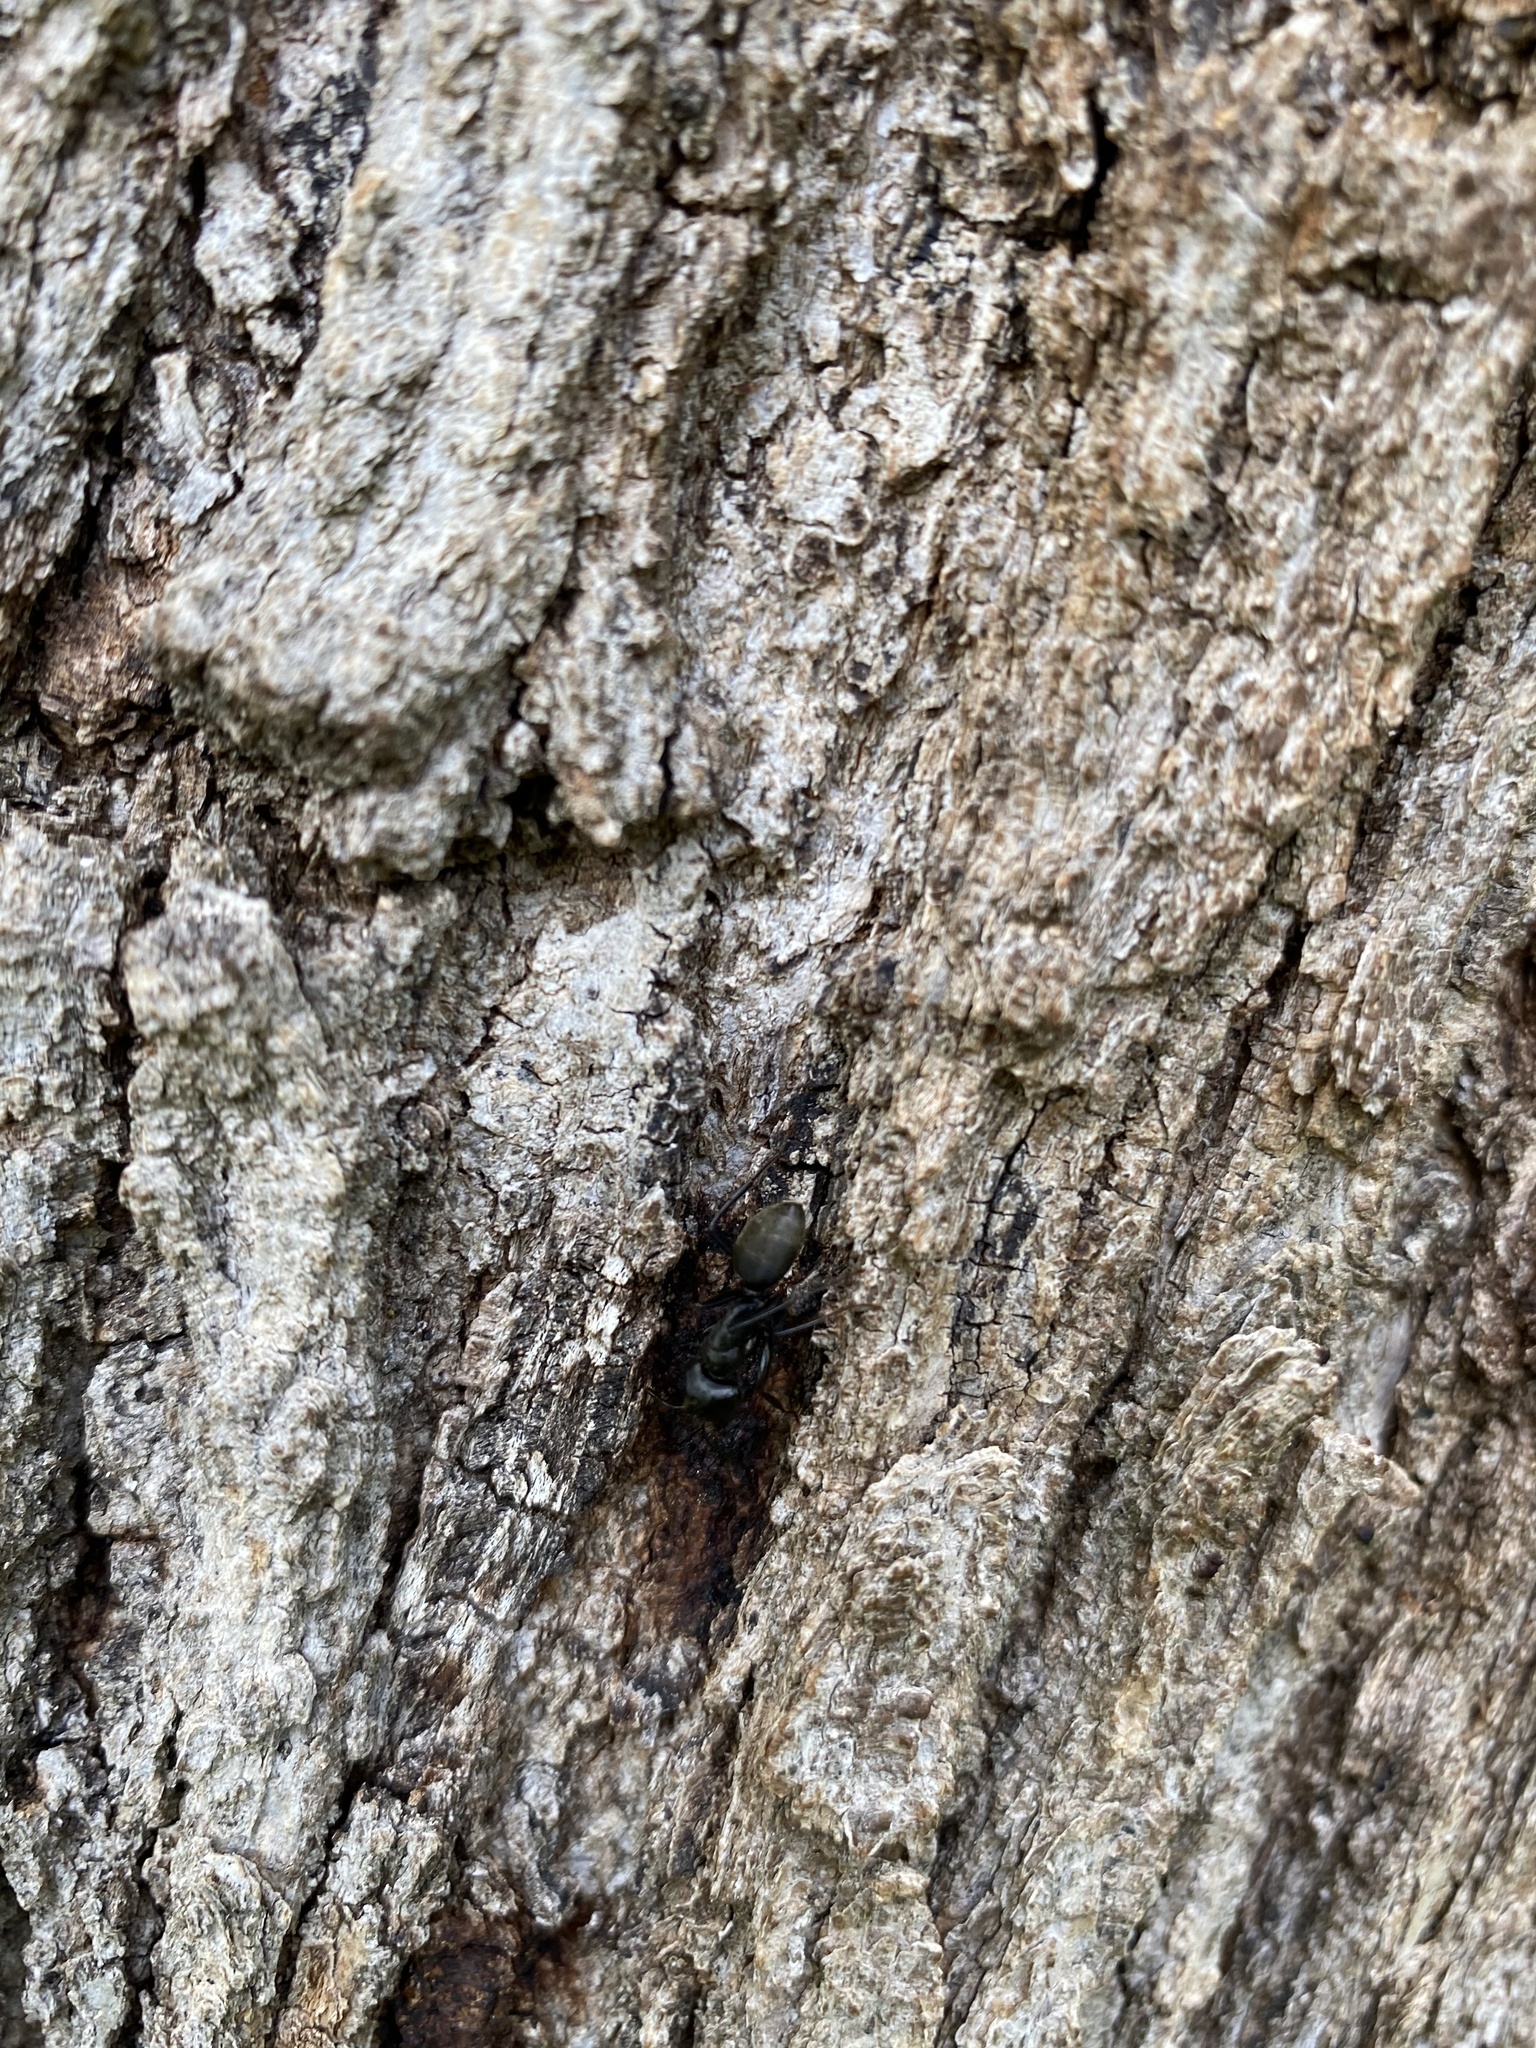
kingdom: Animalia
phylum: Arthropoda
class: Insecta
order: Hymenoptera
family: Formicidae
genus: Camponotus
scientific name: Camponotus pennsylvanicus
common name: Black carpenter ant
